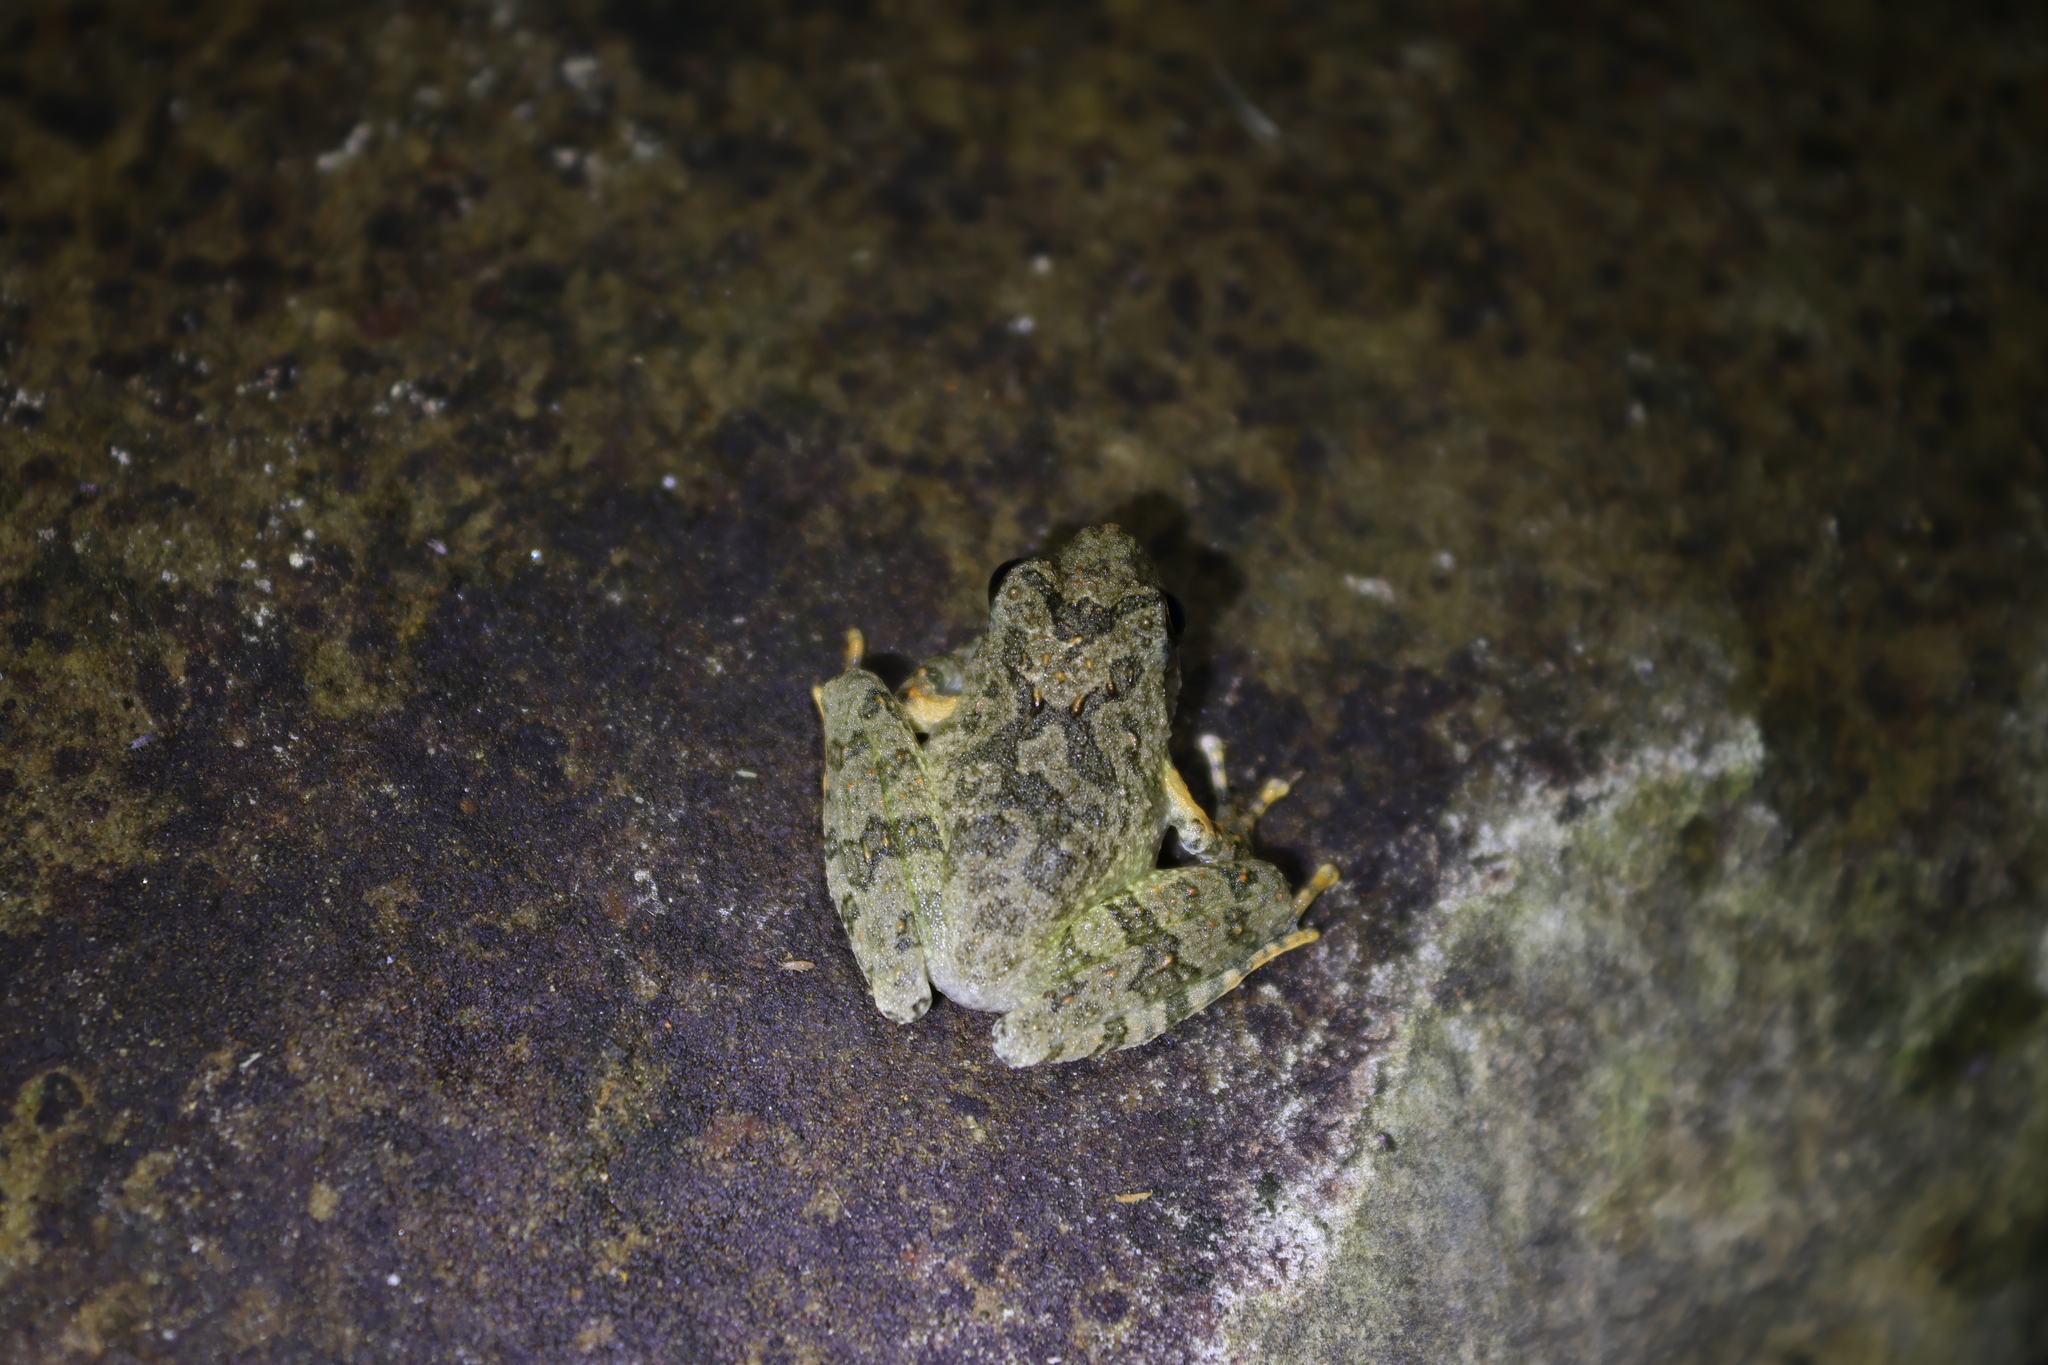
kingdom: Animalia
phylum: Chordata
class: Amphibia
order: Anura
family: Rhacophoridae
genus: Buergeria
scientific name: Buergeria otai
